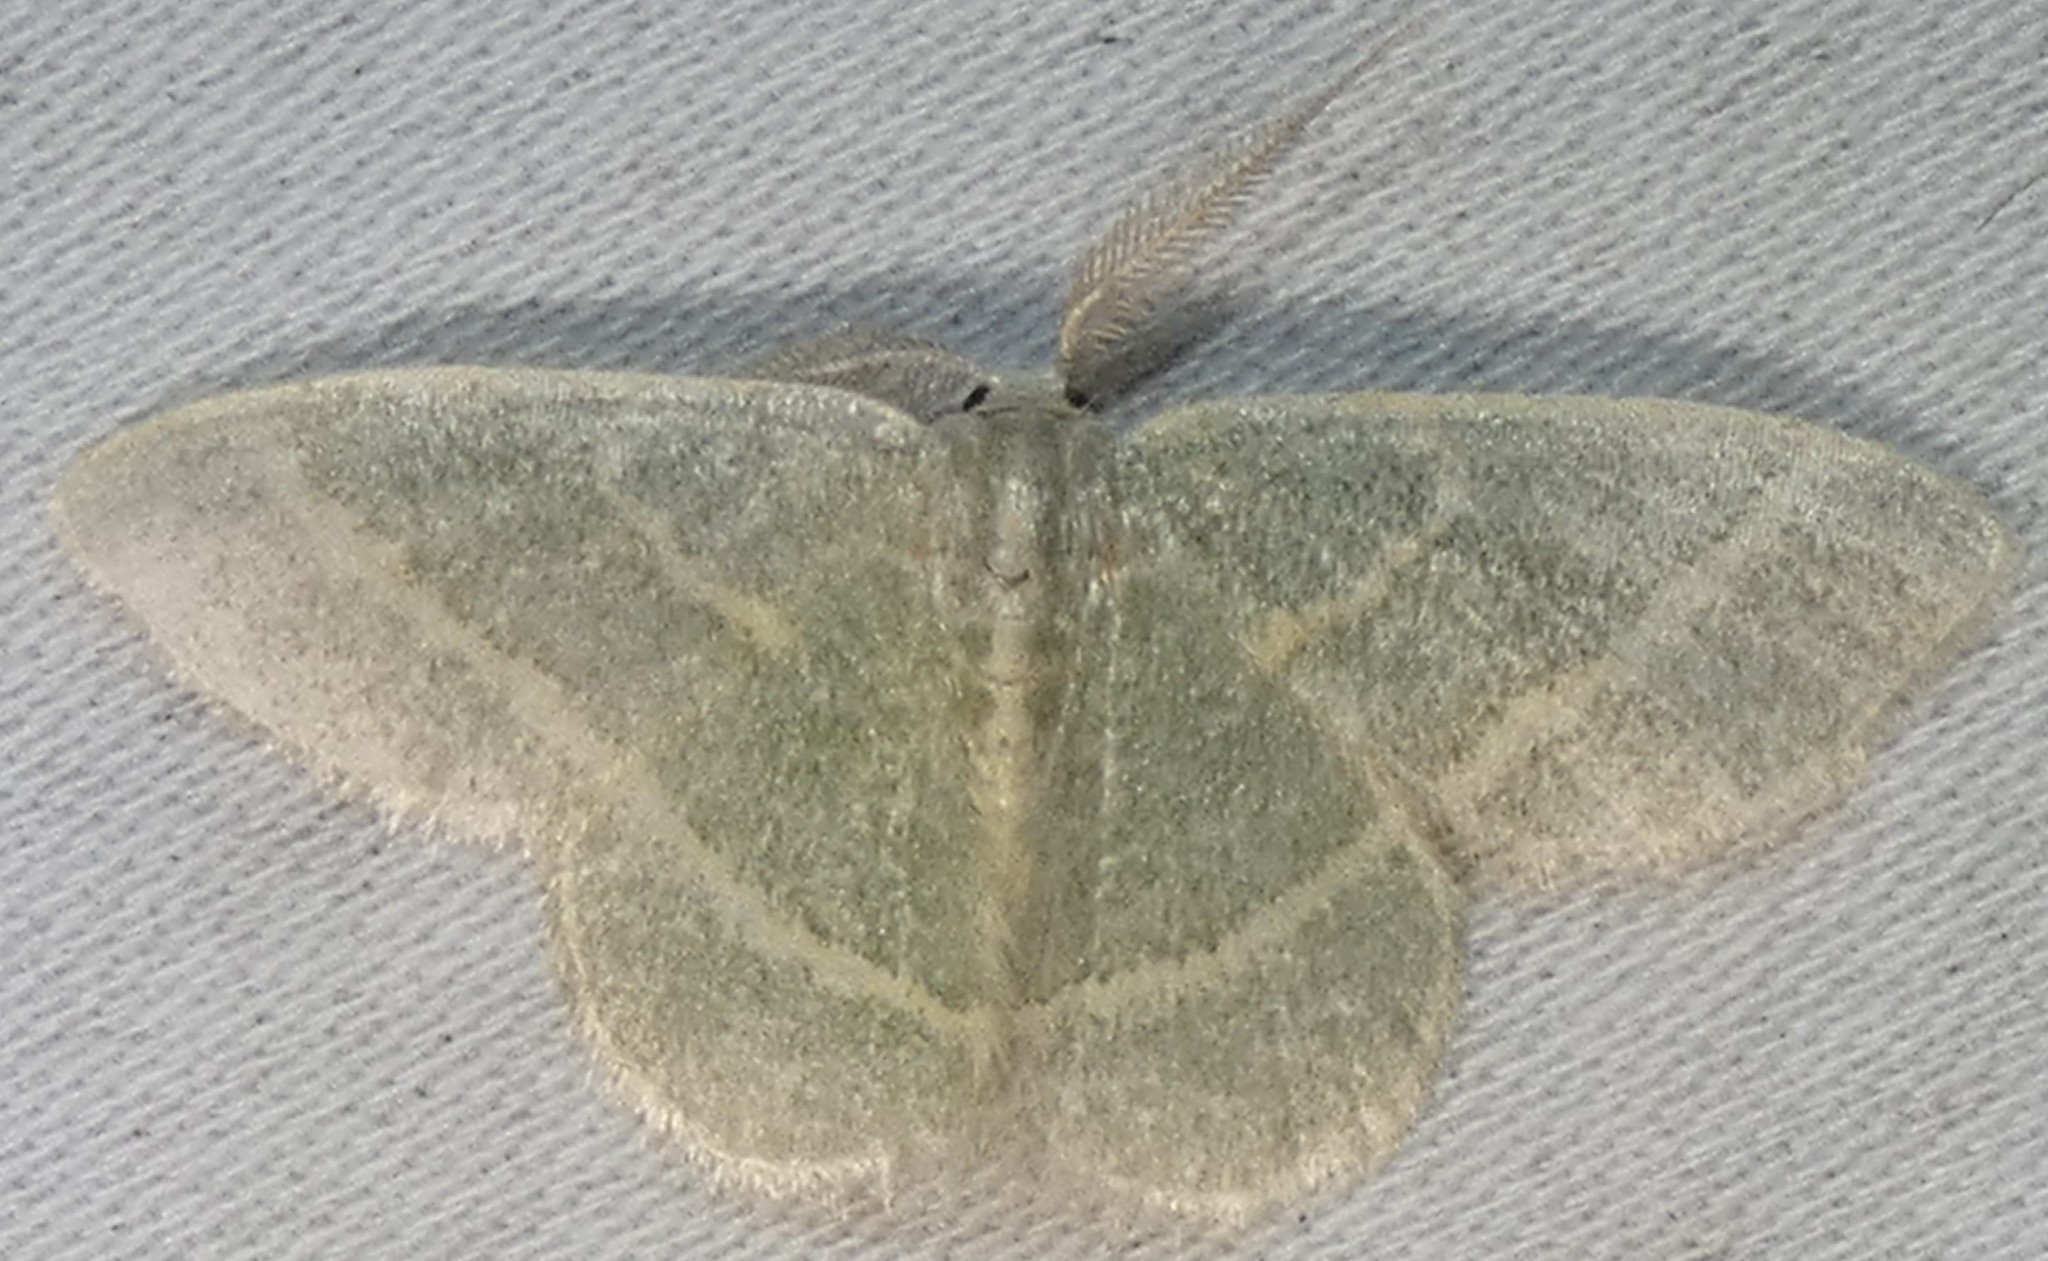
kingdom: Animalia
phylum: Arthropoda
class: Insecta
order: Lepidoptera
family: Geometridae
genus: Chlorochlamys
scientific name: Chlorochlamys chloroleucaria
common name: Blackberry looper
